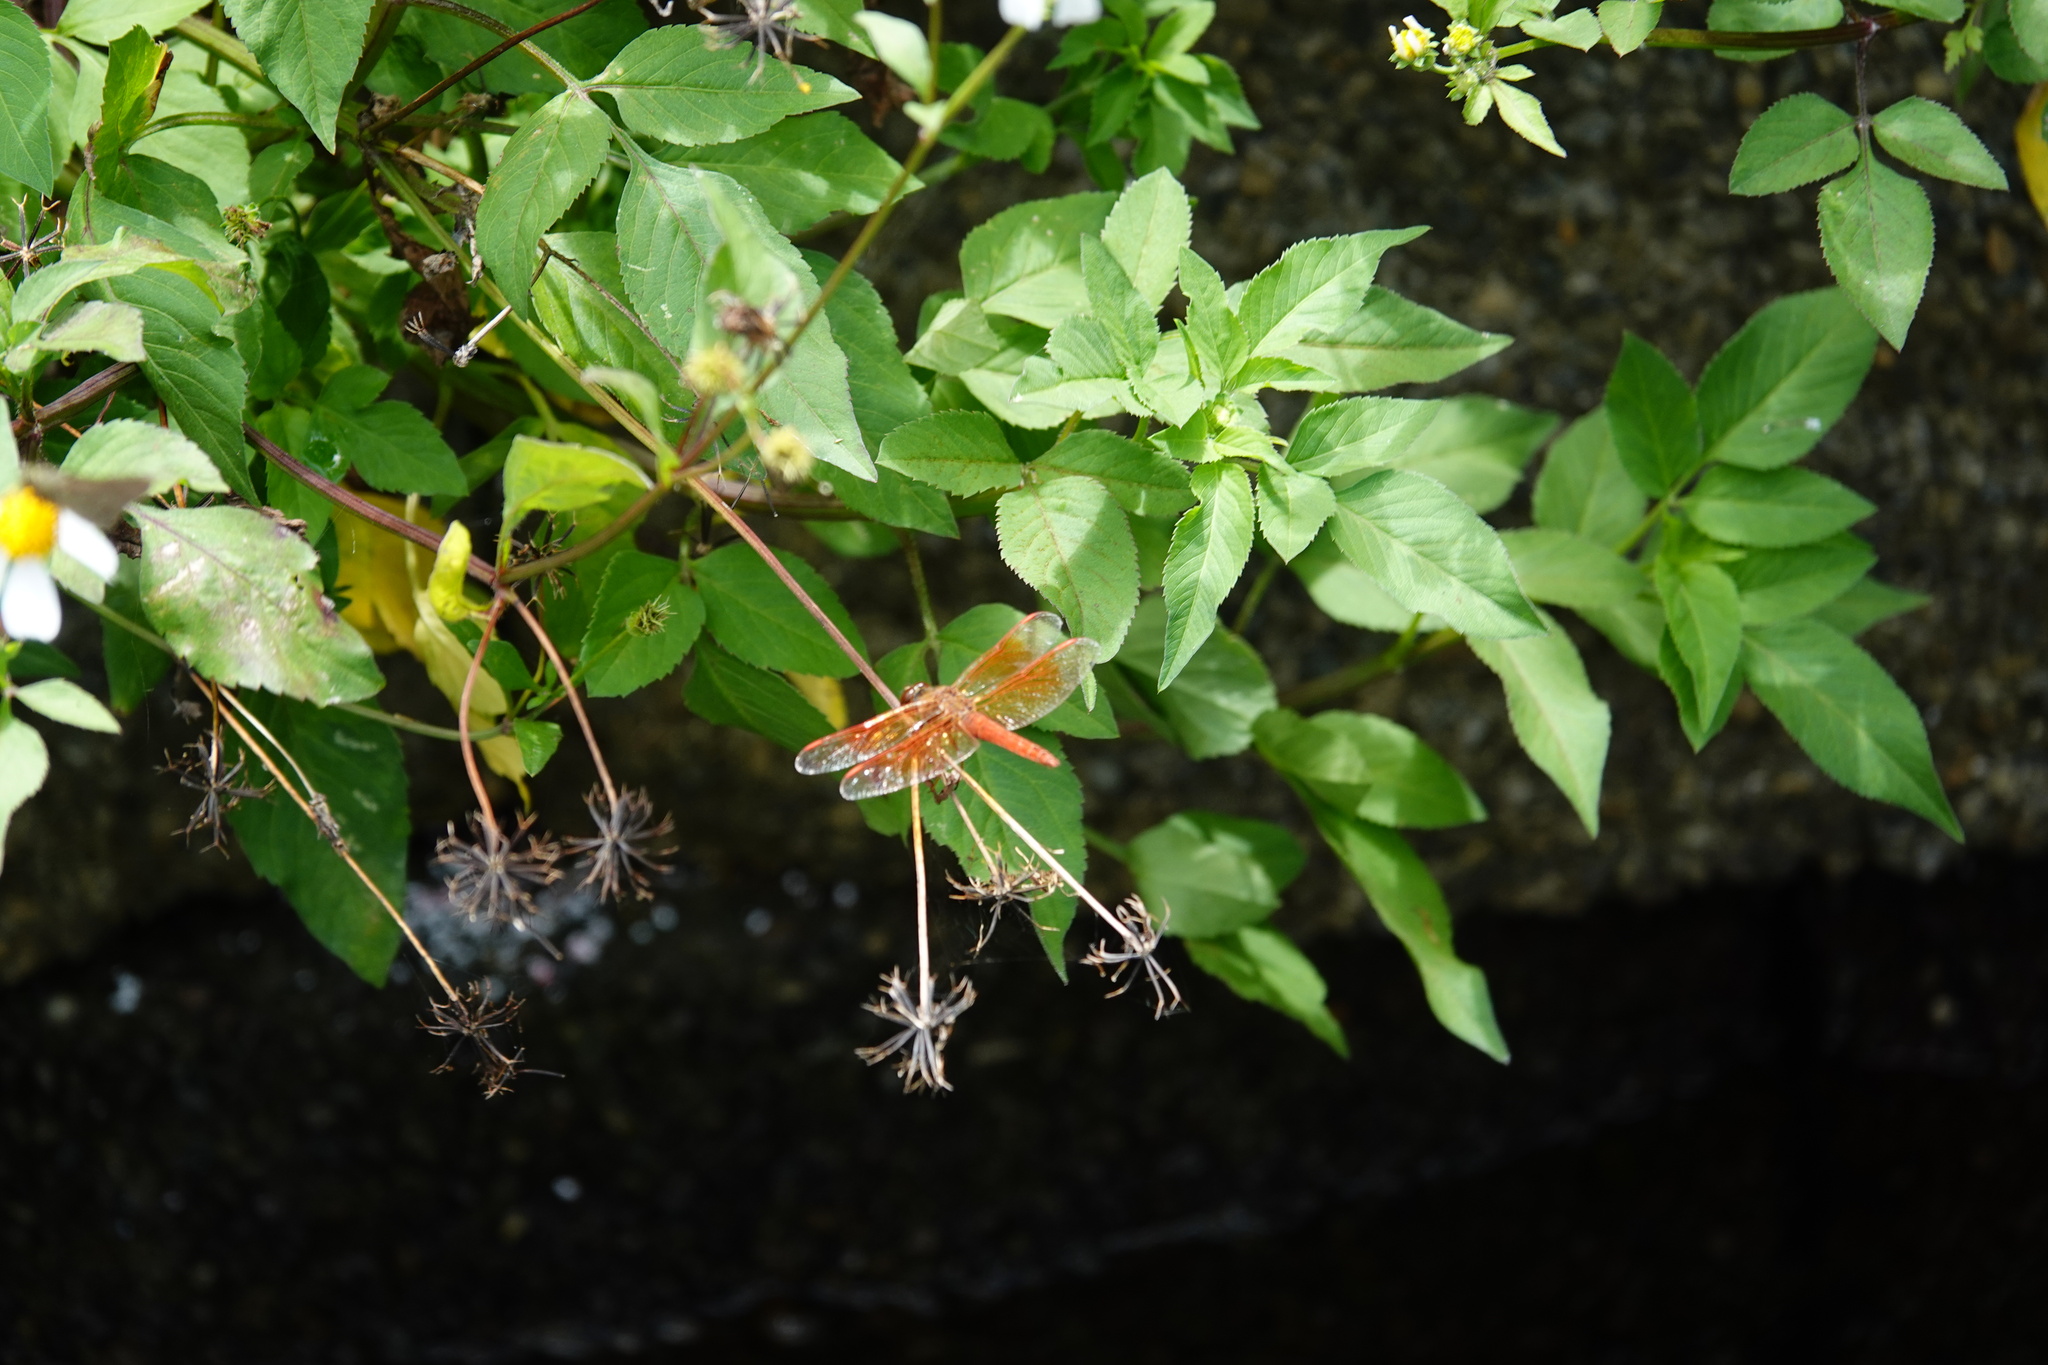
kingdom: Animalia
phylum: Arthropoda
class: Insecta
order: Odonata
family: Libellulidae
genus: Brachythemis
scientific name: Brachythemis contaminata
